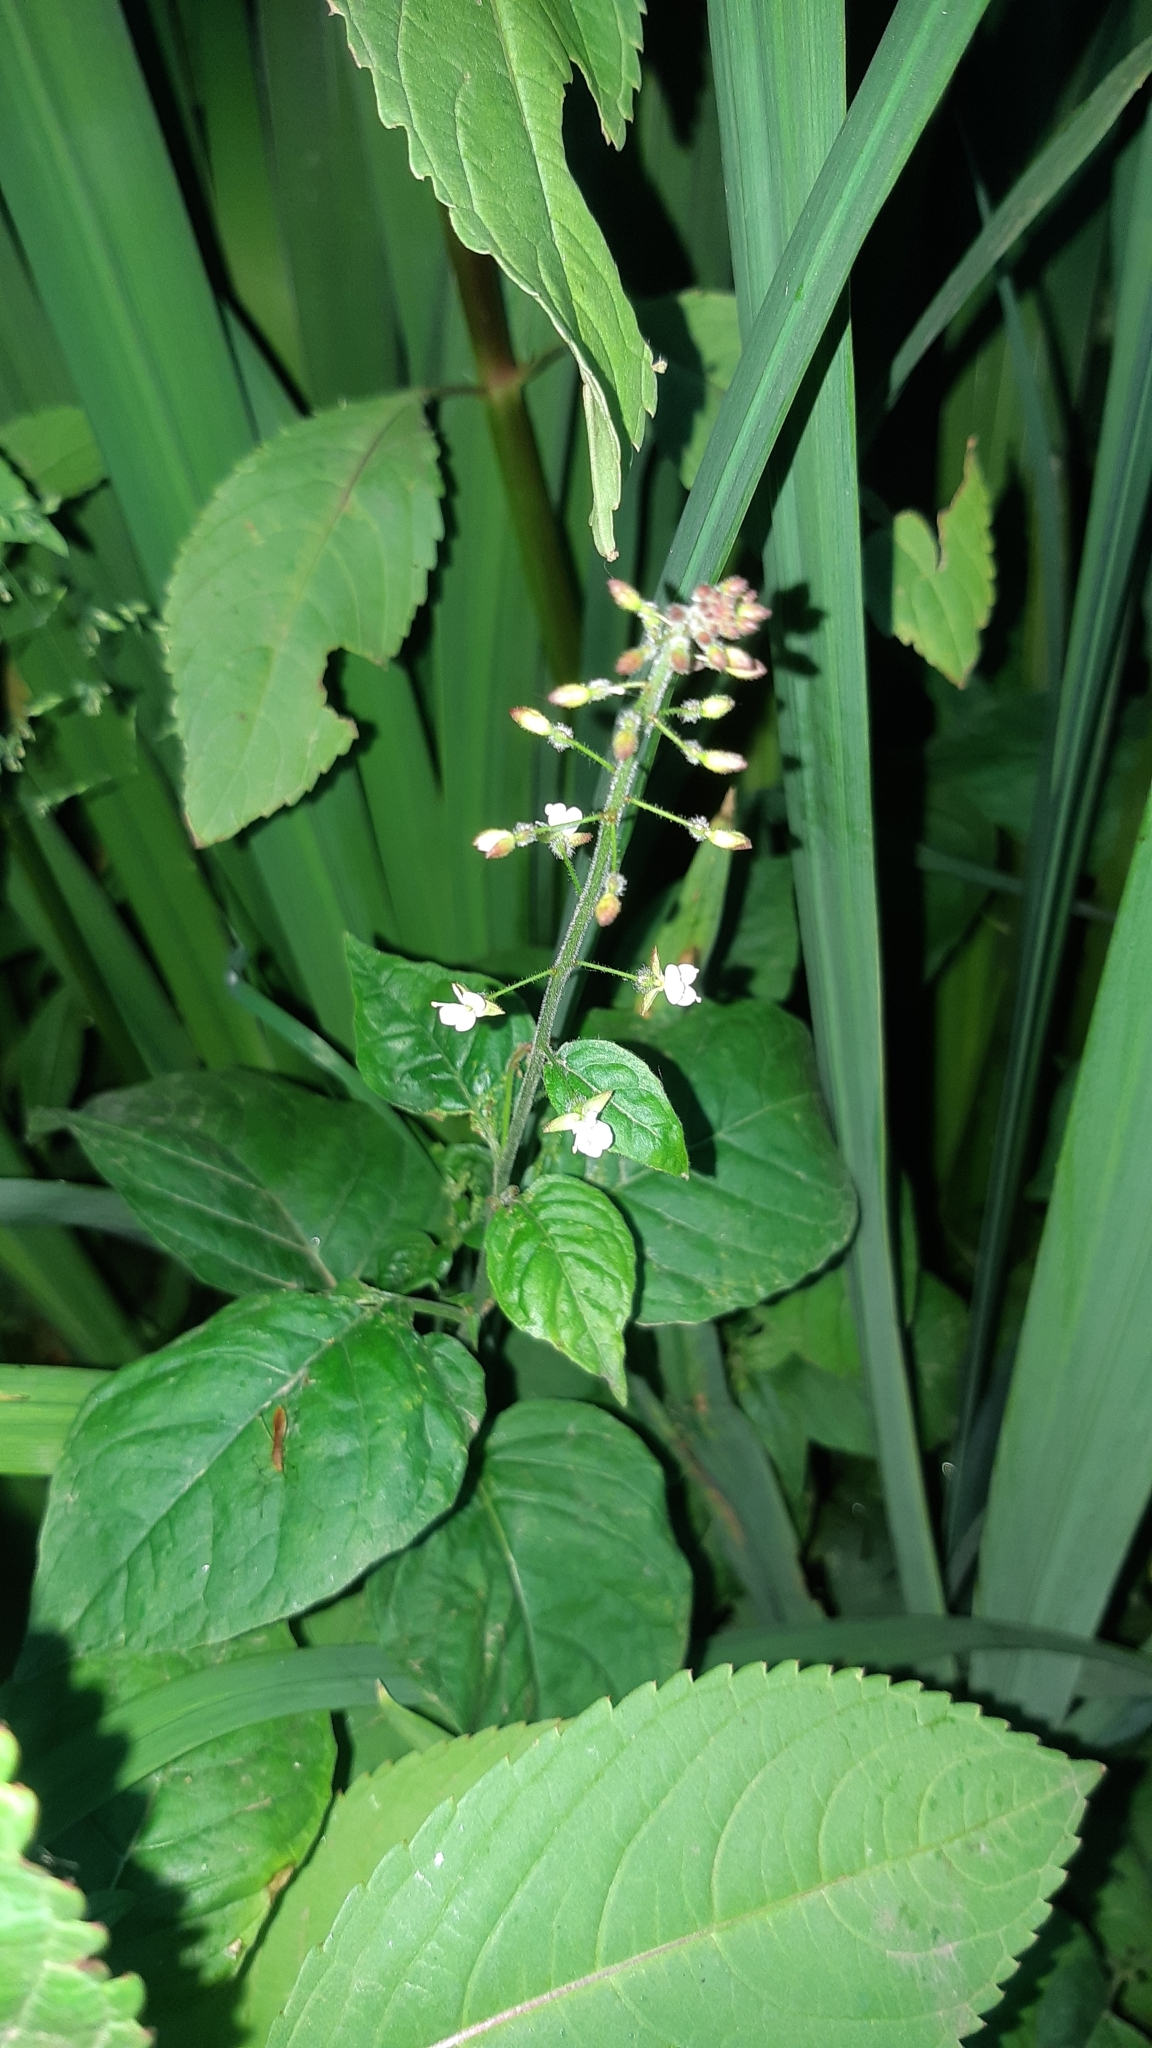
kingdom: Plantae
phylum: Tracheophyta
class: Magnoliopsida
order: Myrtales
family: Onagraceae
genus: Circaea
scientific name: Circaea lutetiana
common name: Enchanter's-nightshade
